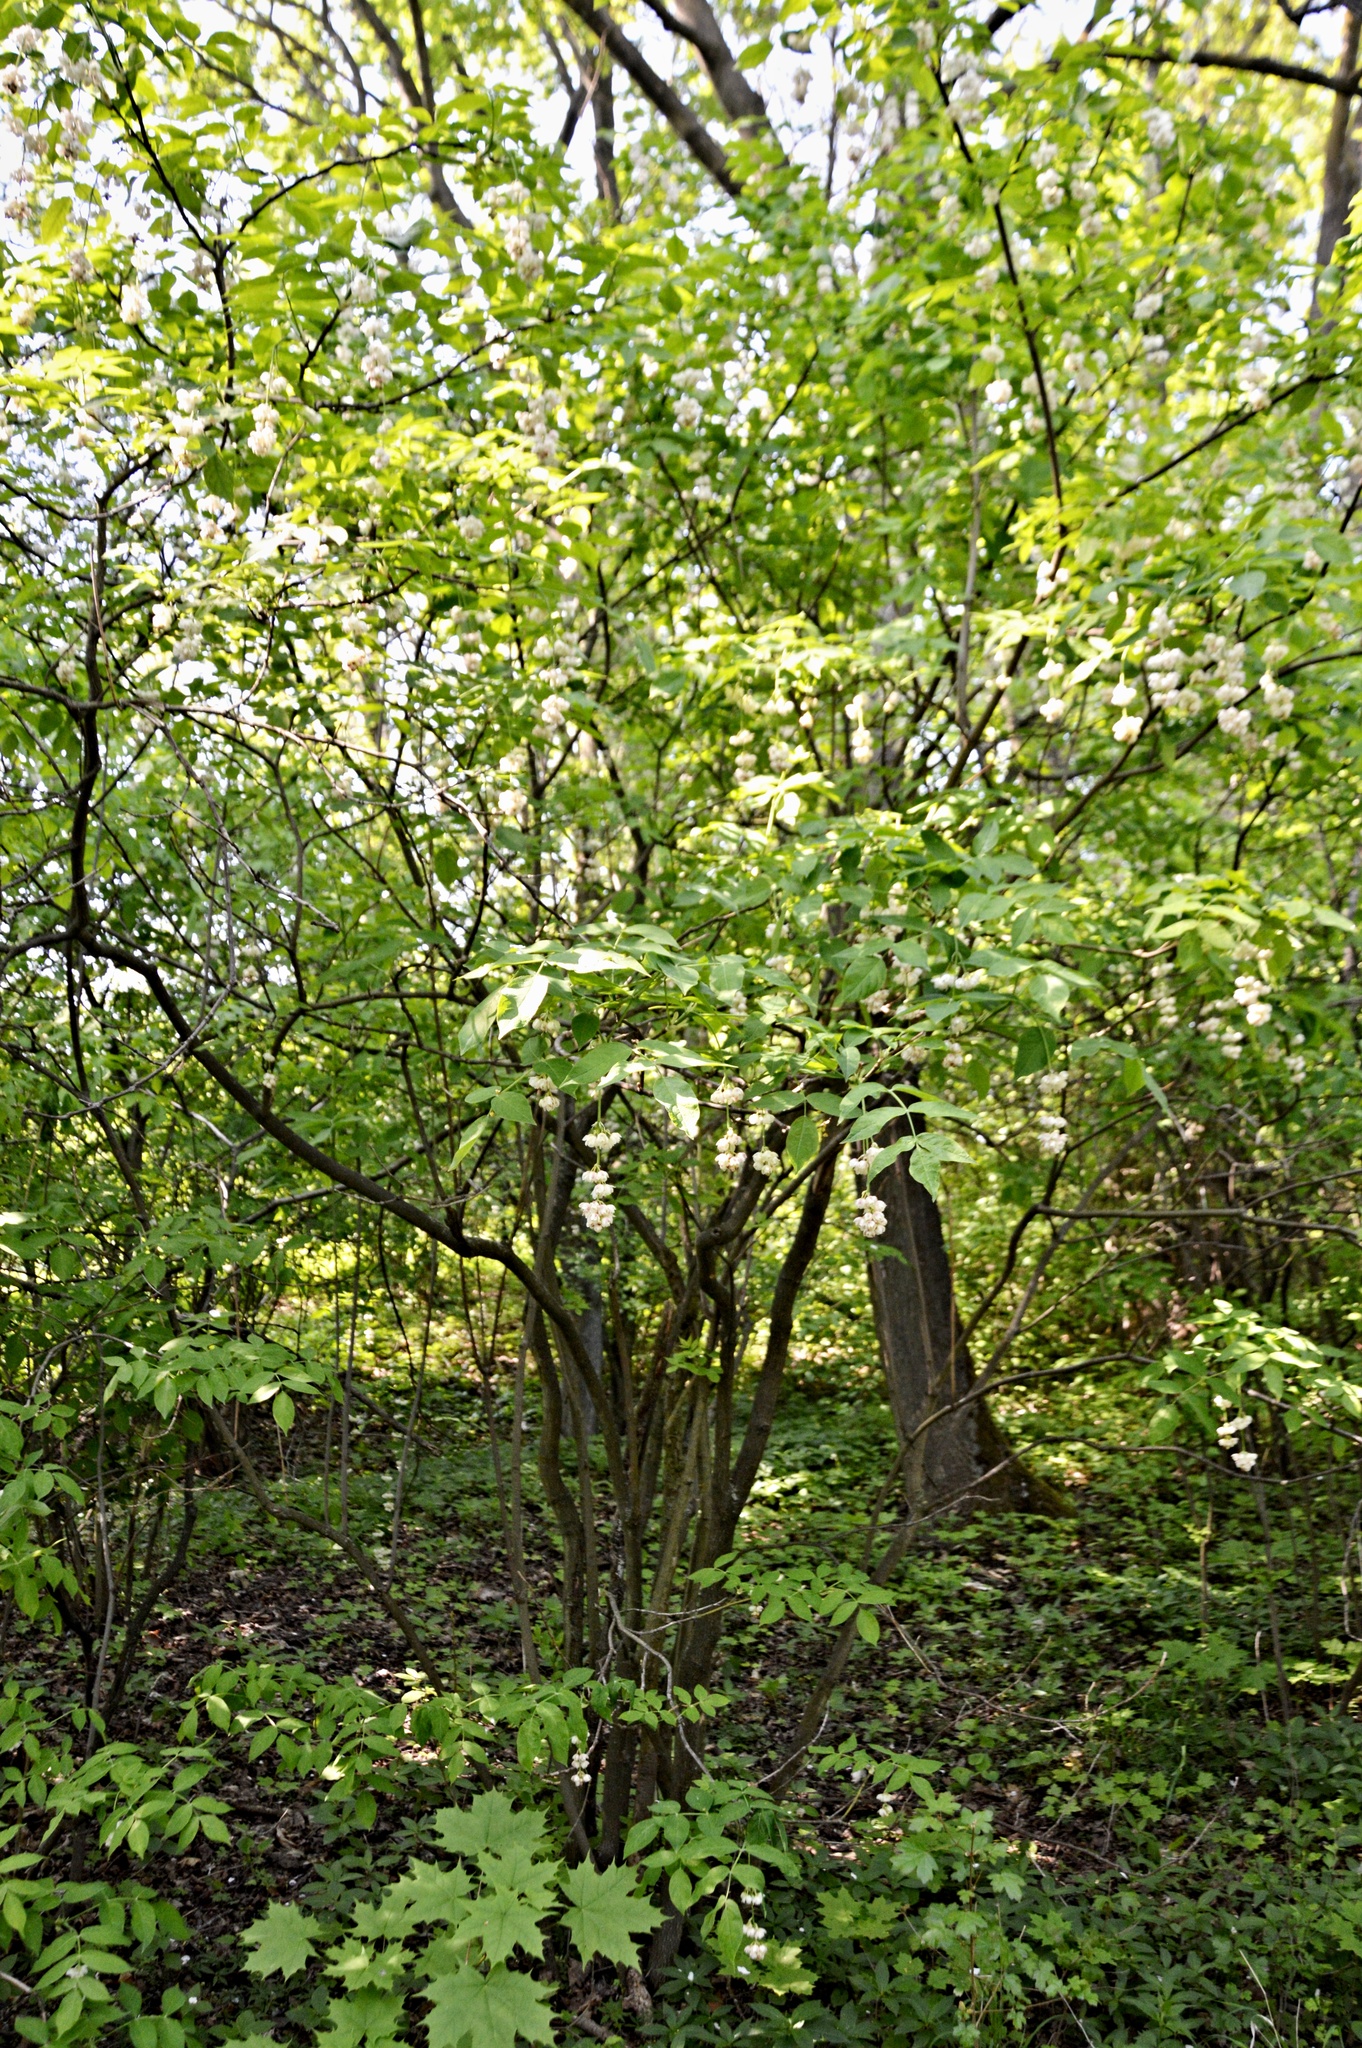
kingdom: Plantae
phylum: Tracheophyta
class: Magnoliopsida
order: Crossosomatales
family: Staphyleaceae
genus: Staphylea
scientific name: Staphylea pinnata
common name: Bladdernut
